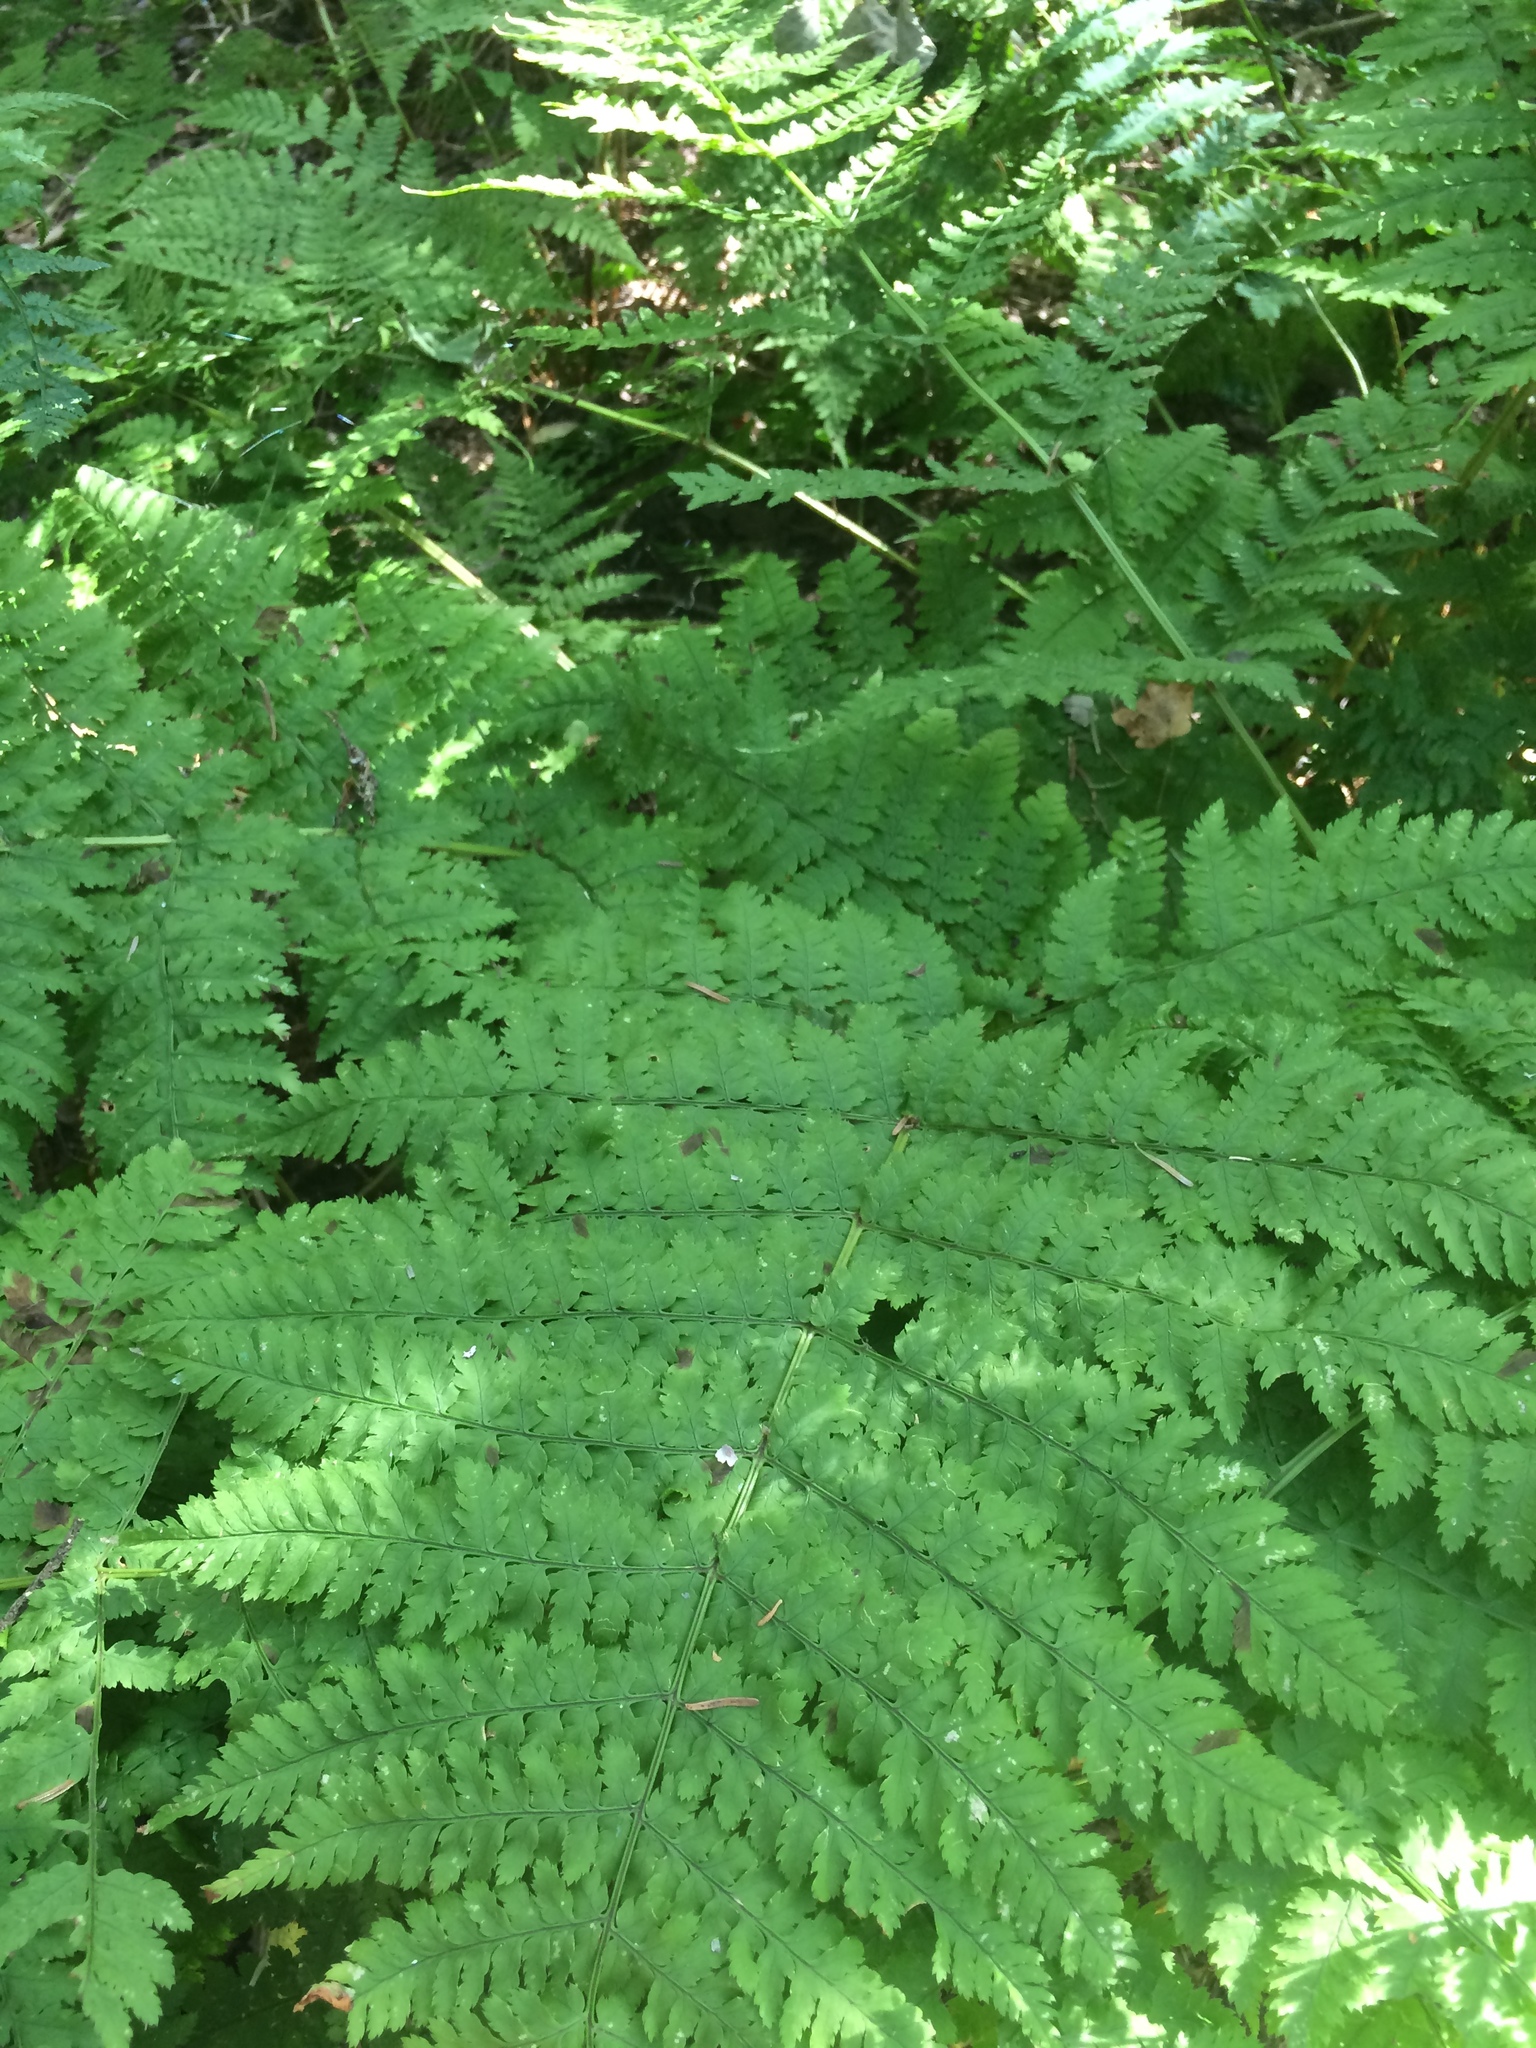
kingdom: Plantae
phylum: Tracheophyta
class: Polypodiopsida
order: Polypodiales
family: Dryopteridaceae
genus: Dryopteris
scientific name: Dryopteris campyloptera
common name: Mountain wood fern
